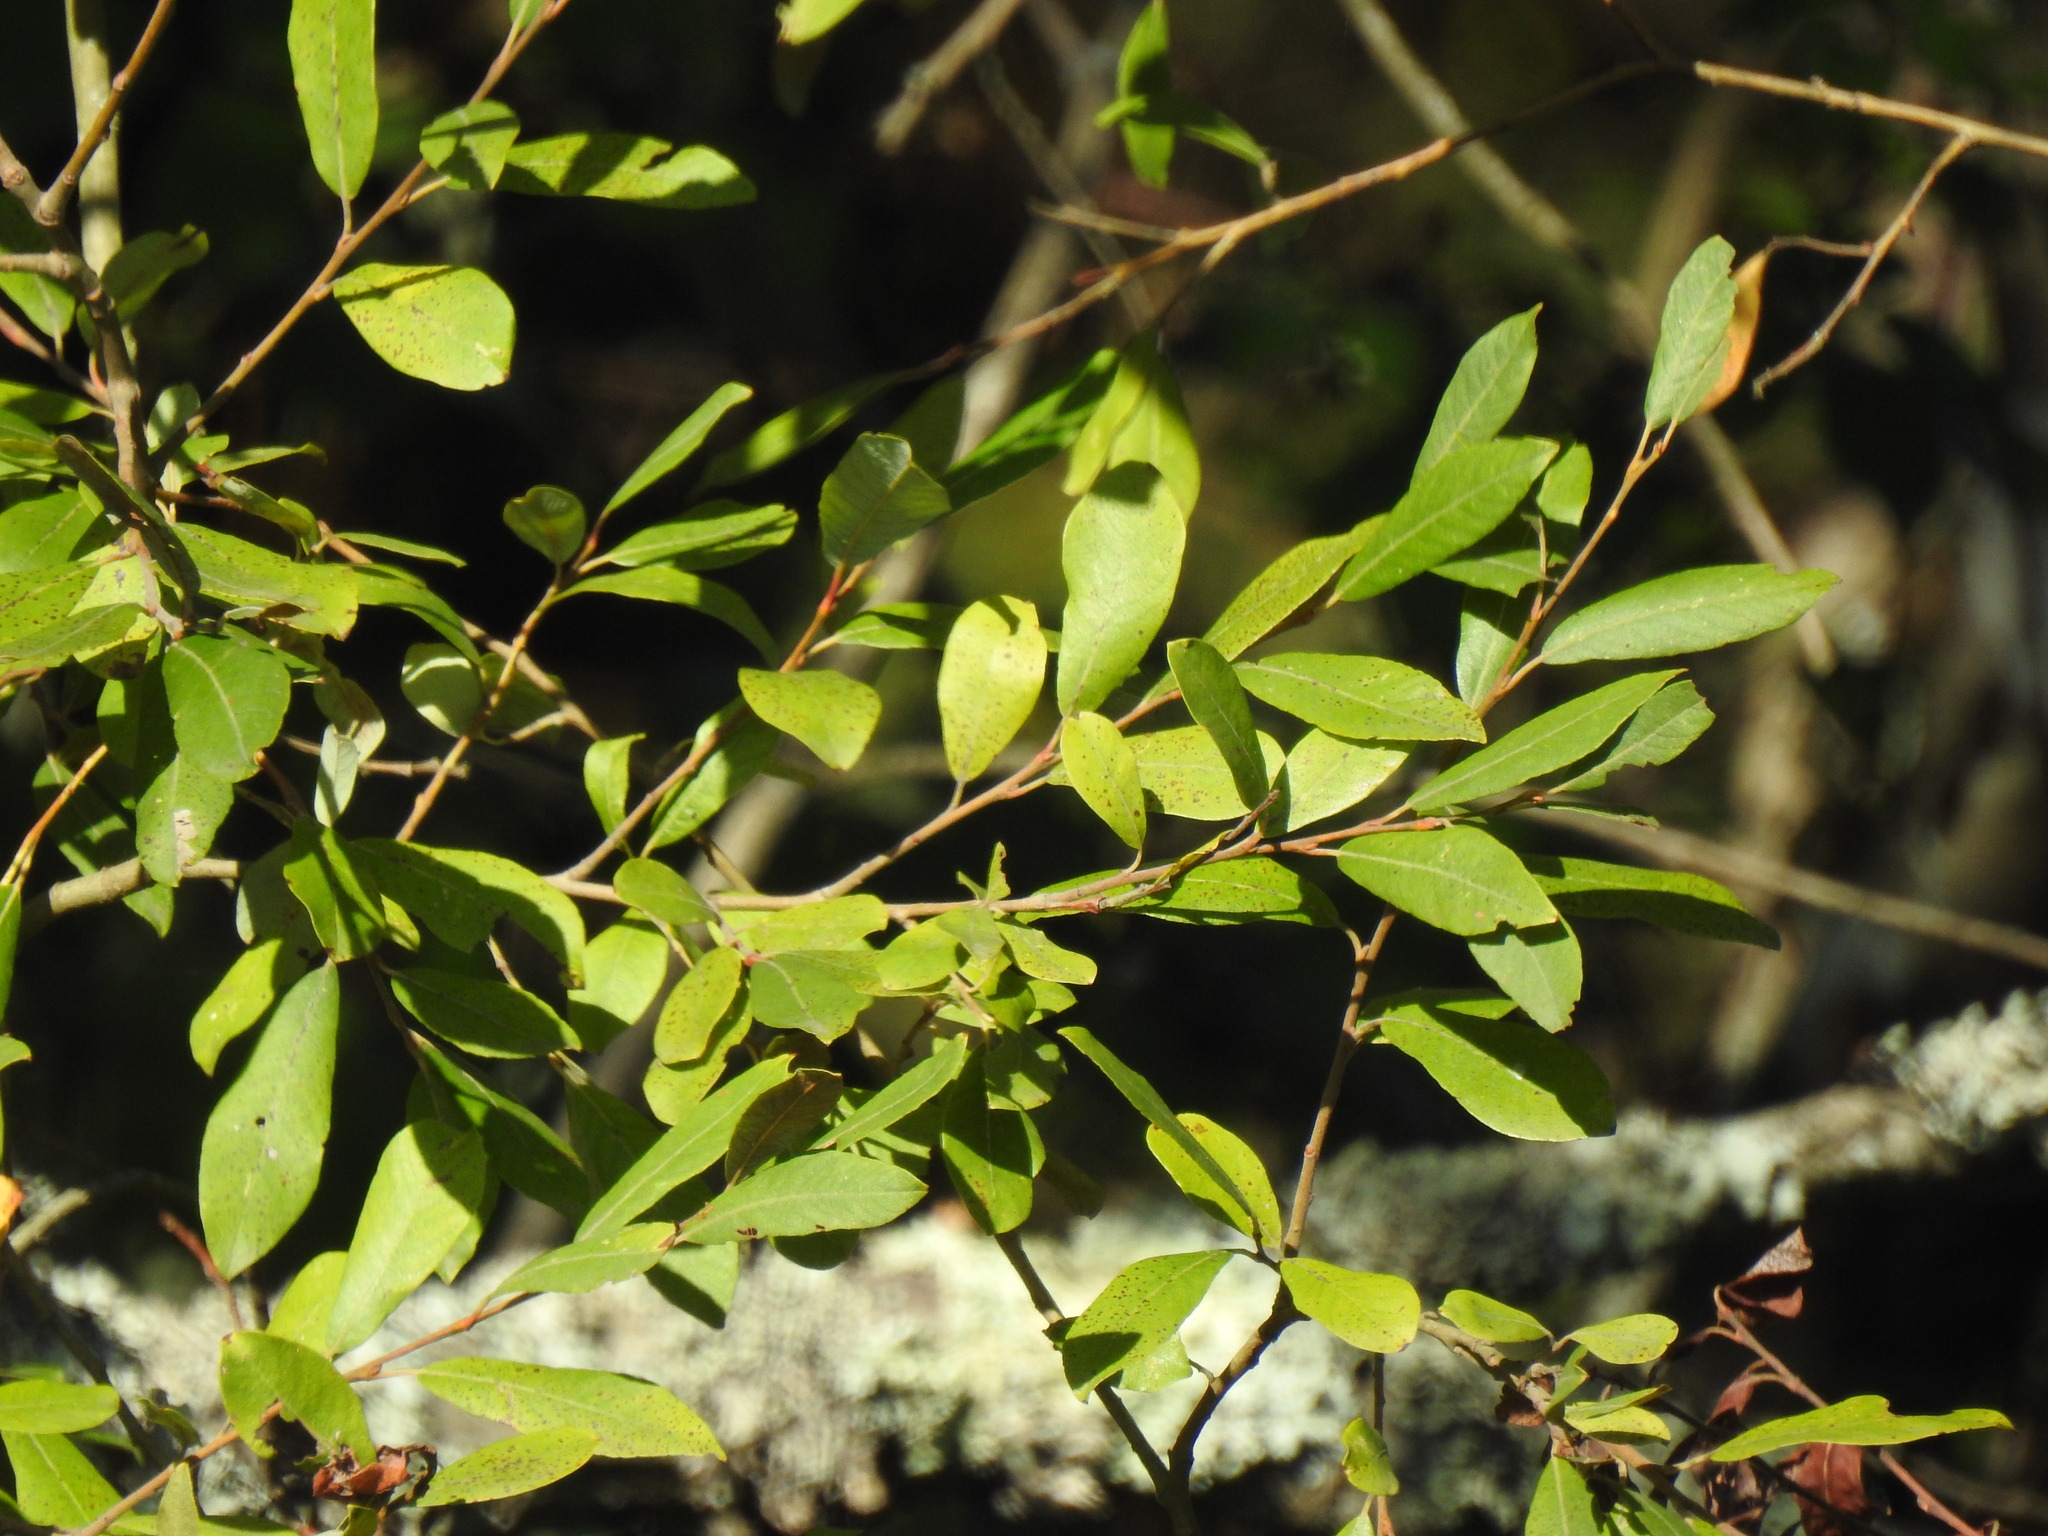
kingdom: Plantae
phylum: Tracheophyta
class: Magnoliopsida
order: Malpighiales
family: Salicaceae
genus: Salix
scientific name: Salix atrocinerea
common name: Rusty willow
